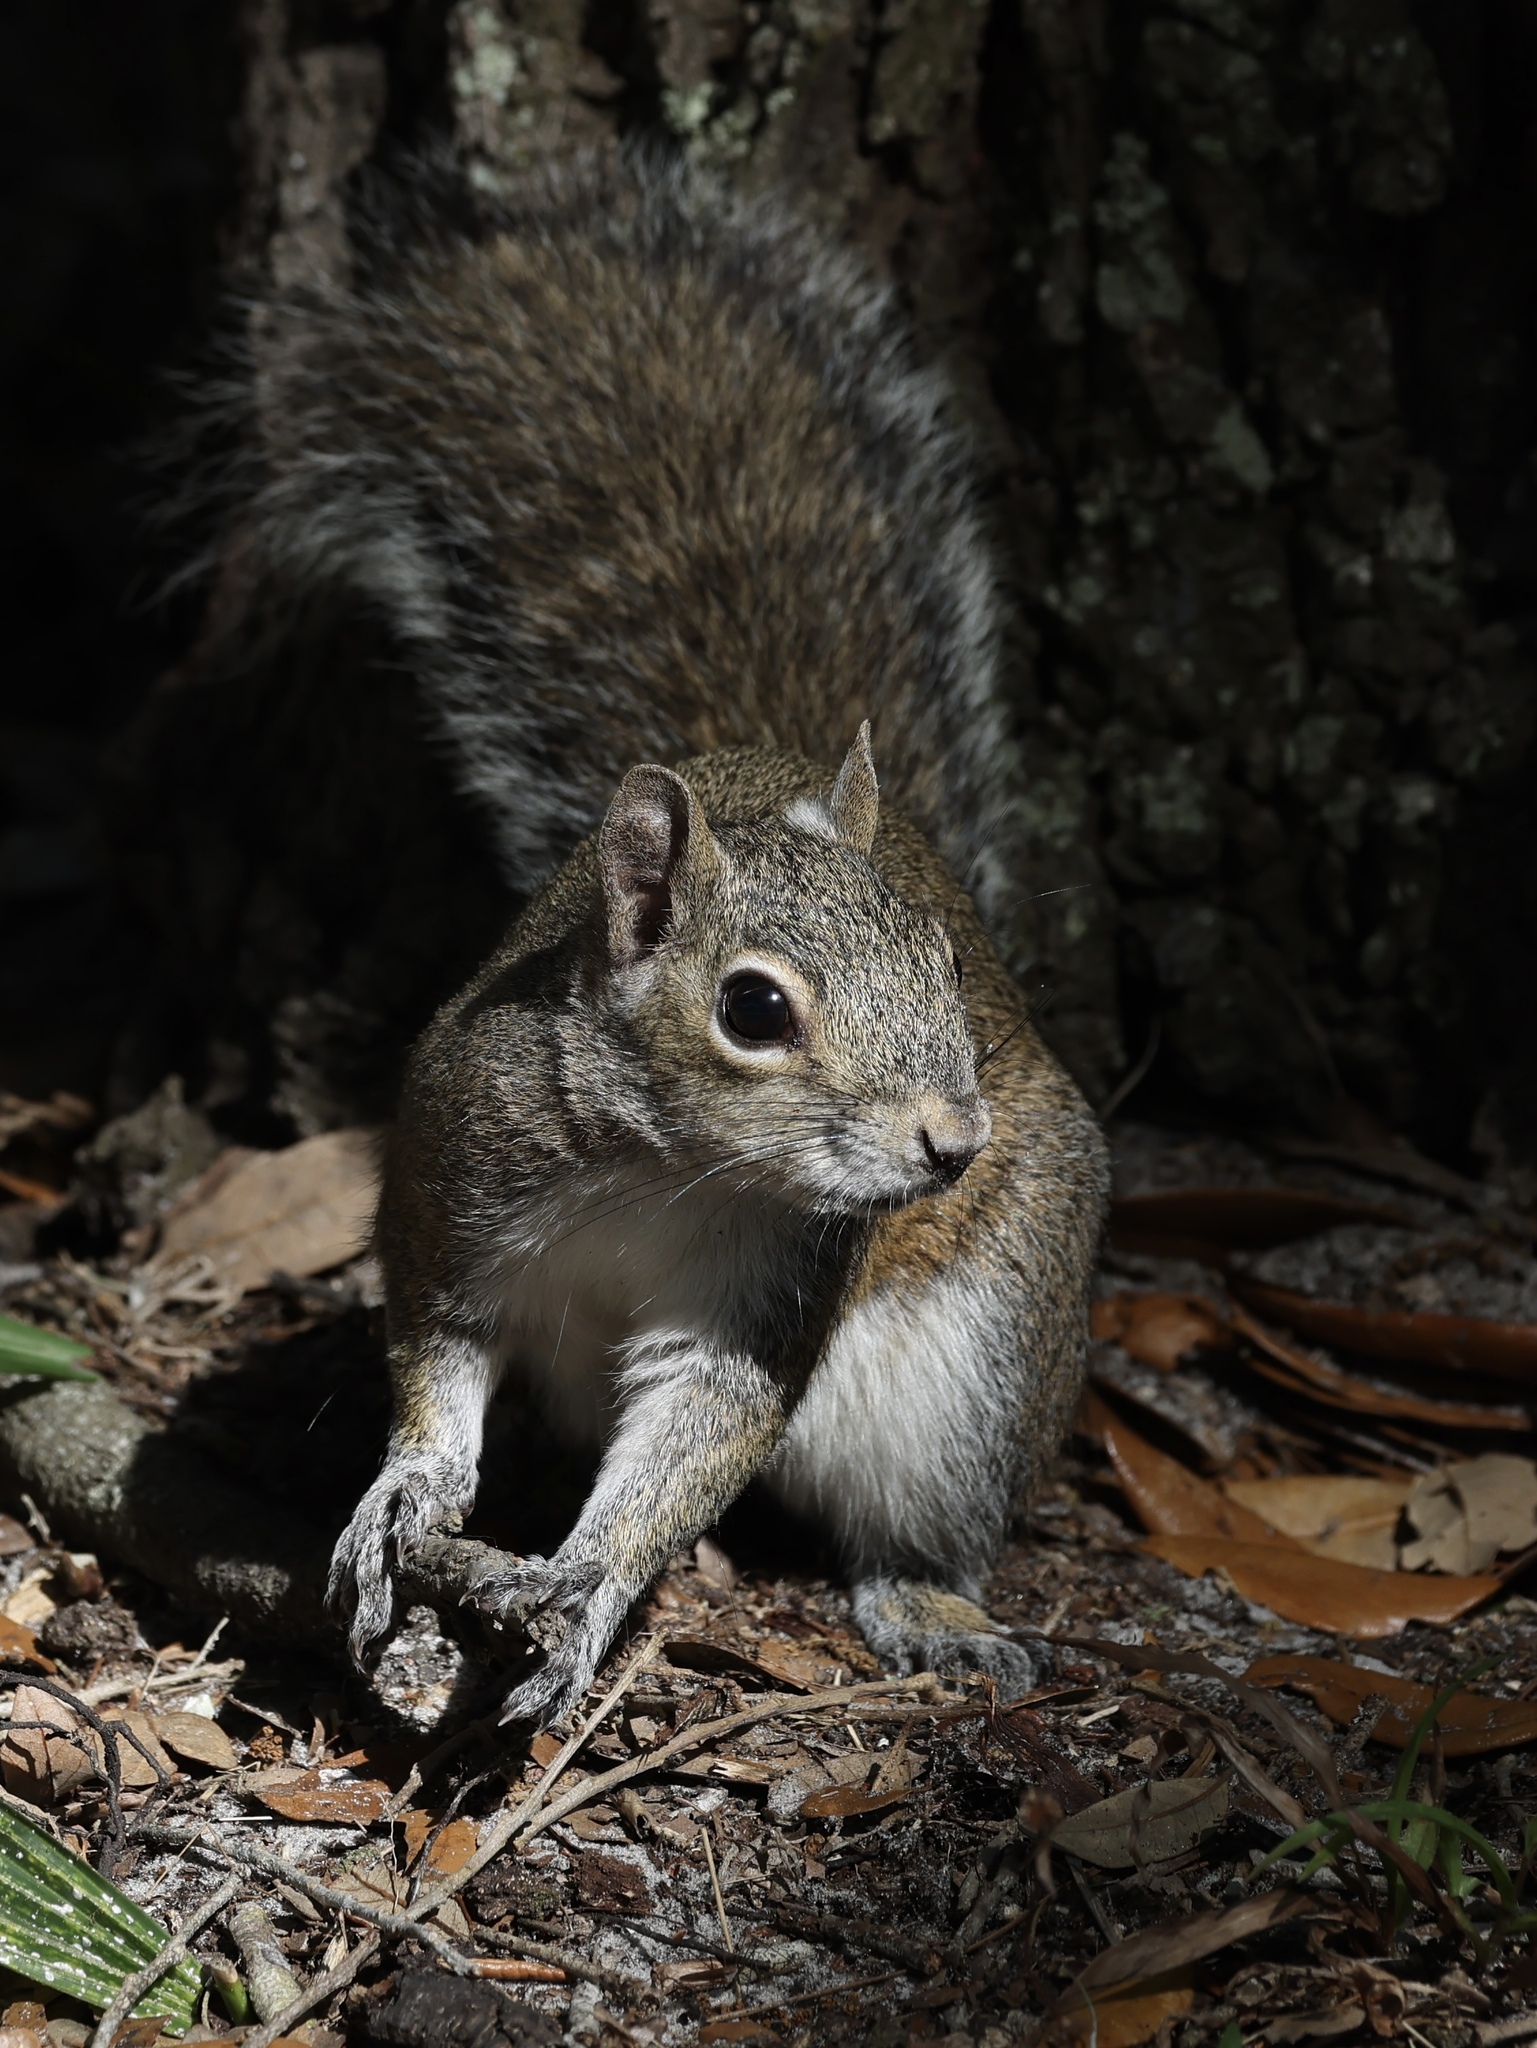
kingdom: Animalia
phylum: Chordata
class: Mammalia
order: Rodentia
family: Sciuridae
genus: Sciurus
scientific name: Sciurus carolinensis
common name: Eastern gray squirrel
